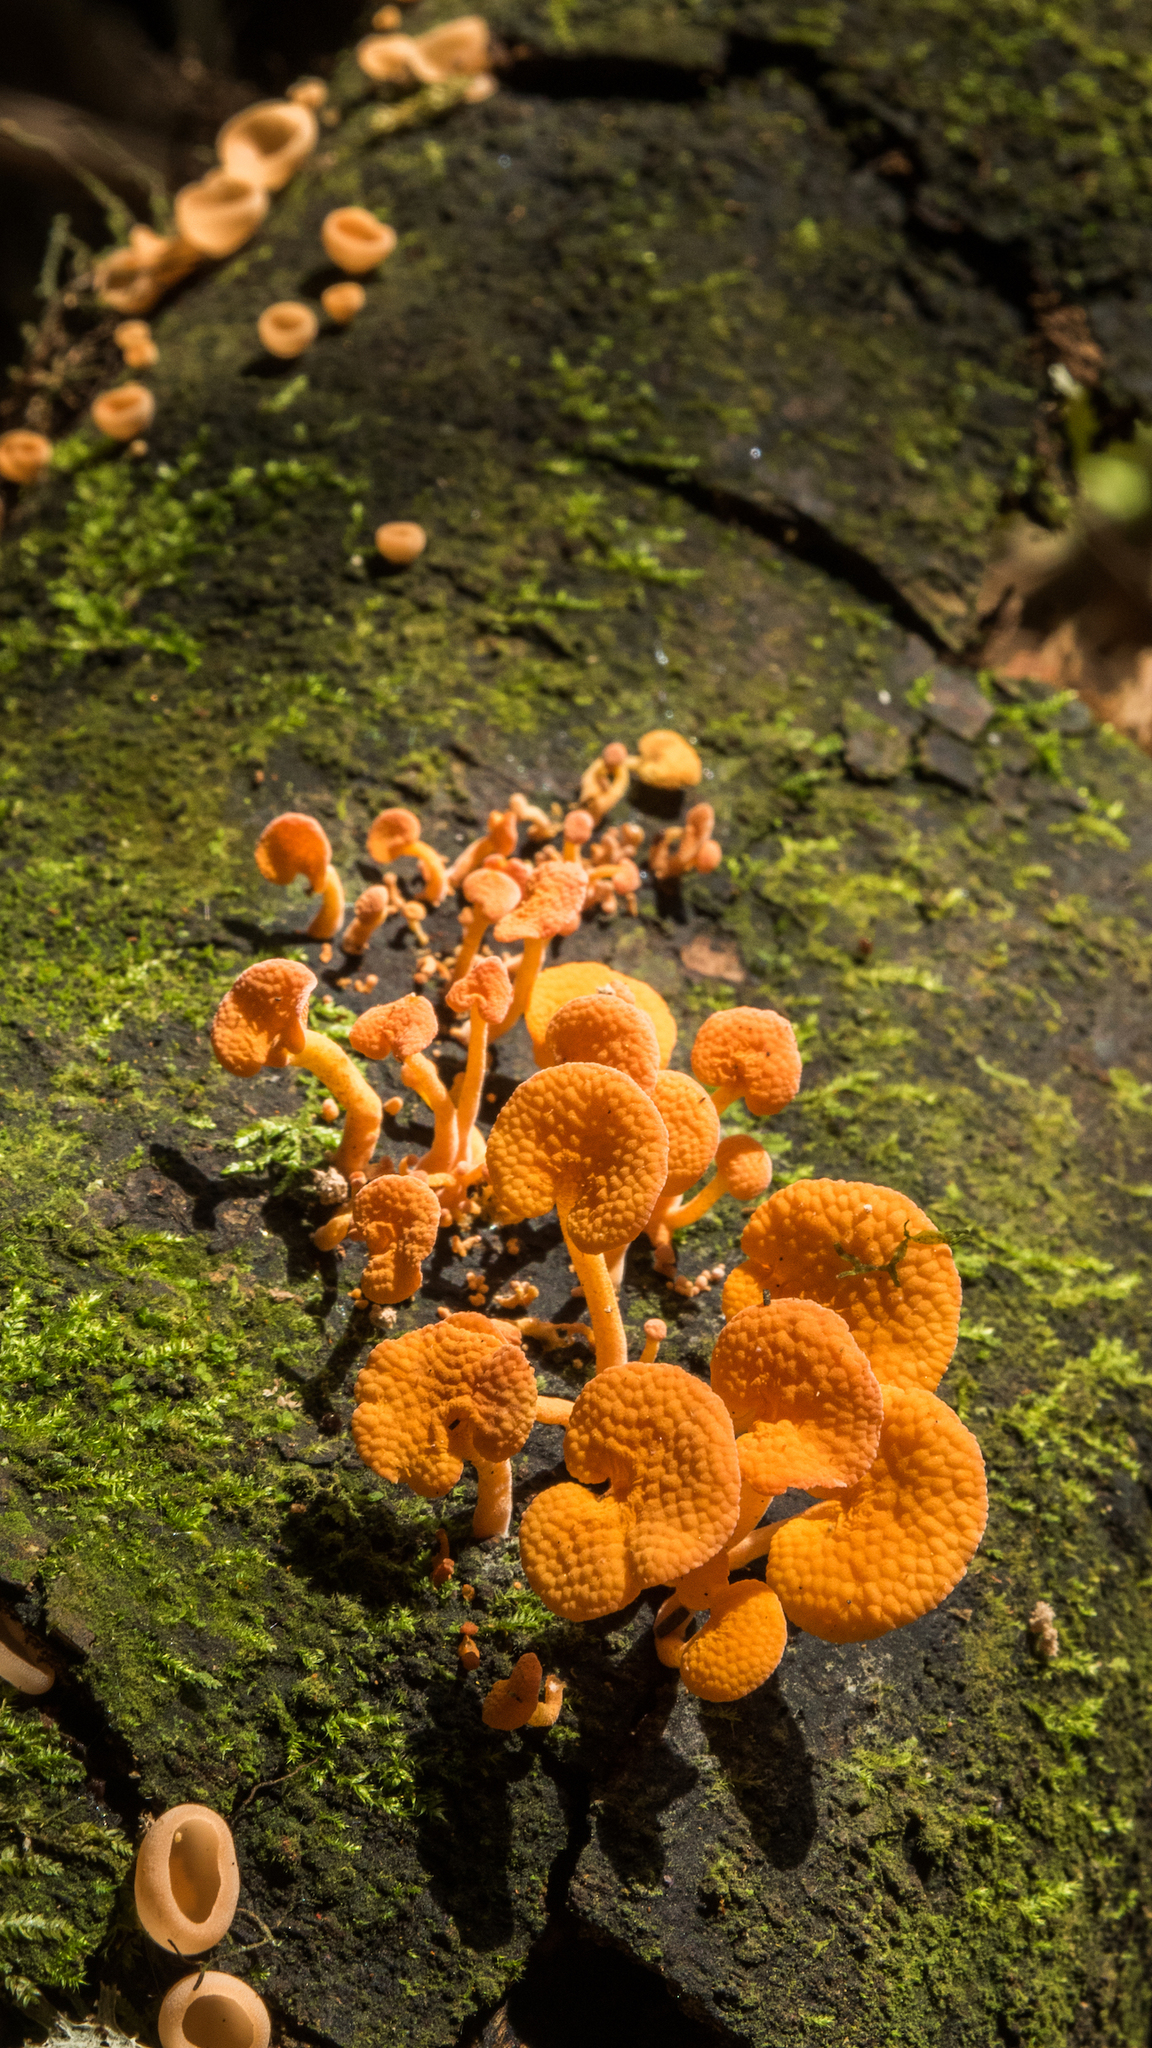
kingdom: Fungi
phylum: Basidiomycota
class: Agaricomycetes
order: Agaricales
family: Mycenaceae
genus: Favolaschia
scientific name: Favolaschia claudopus
